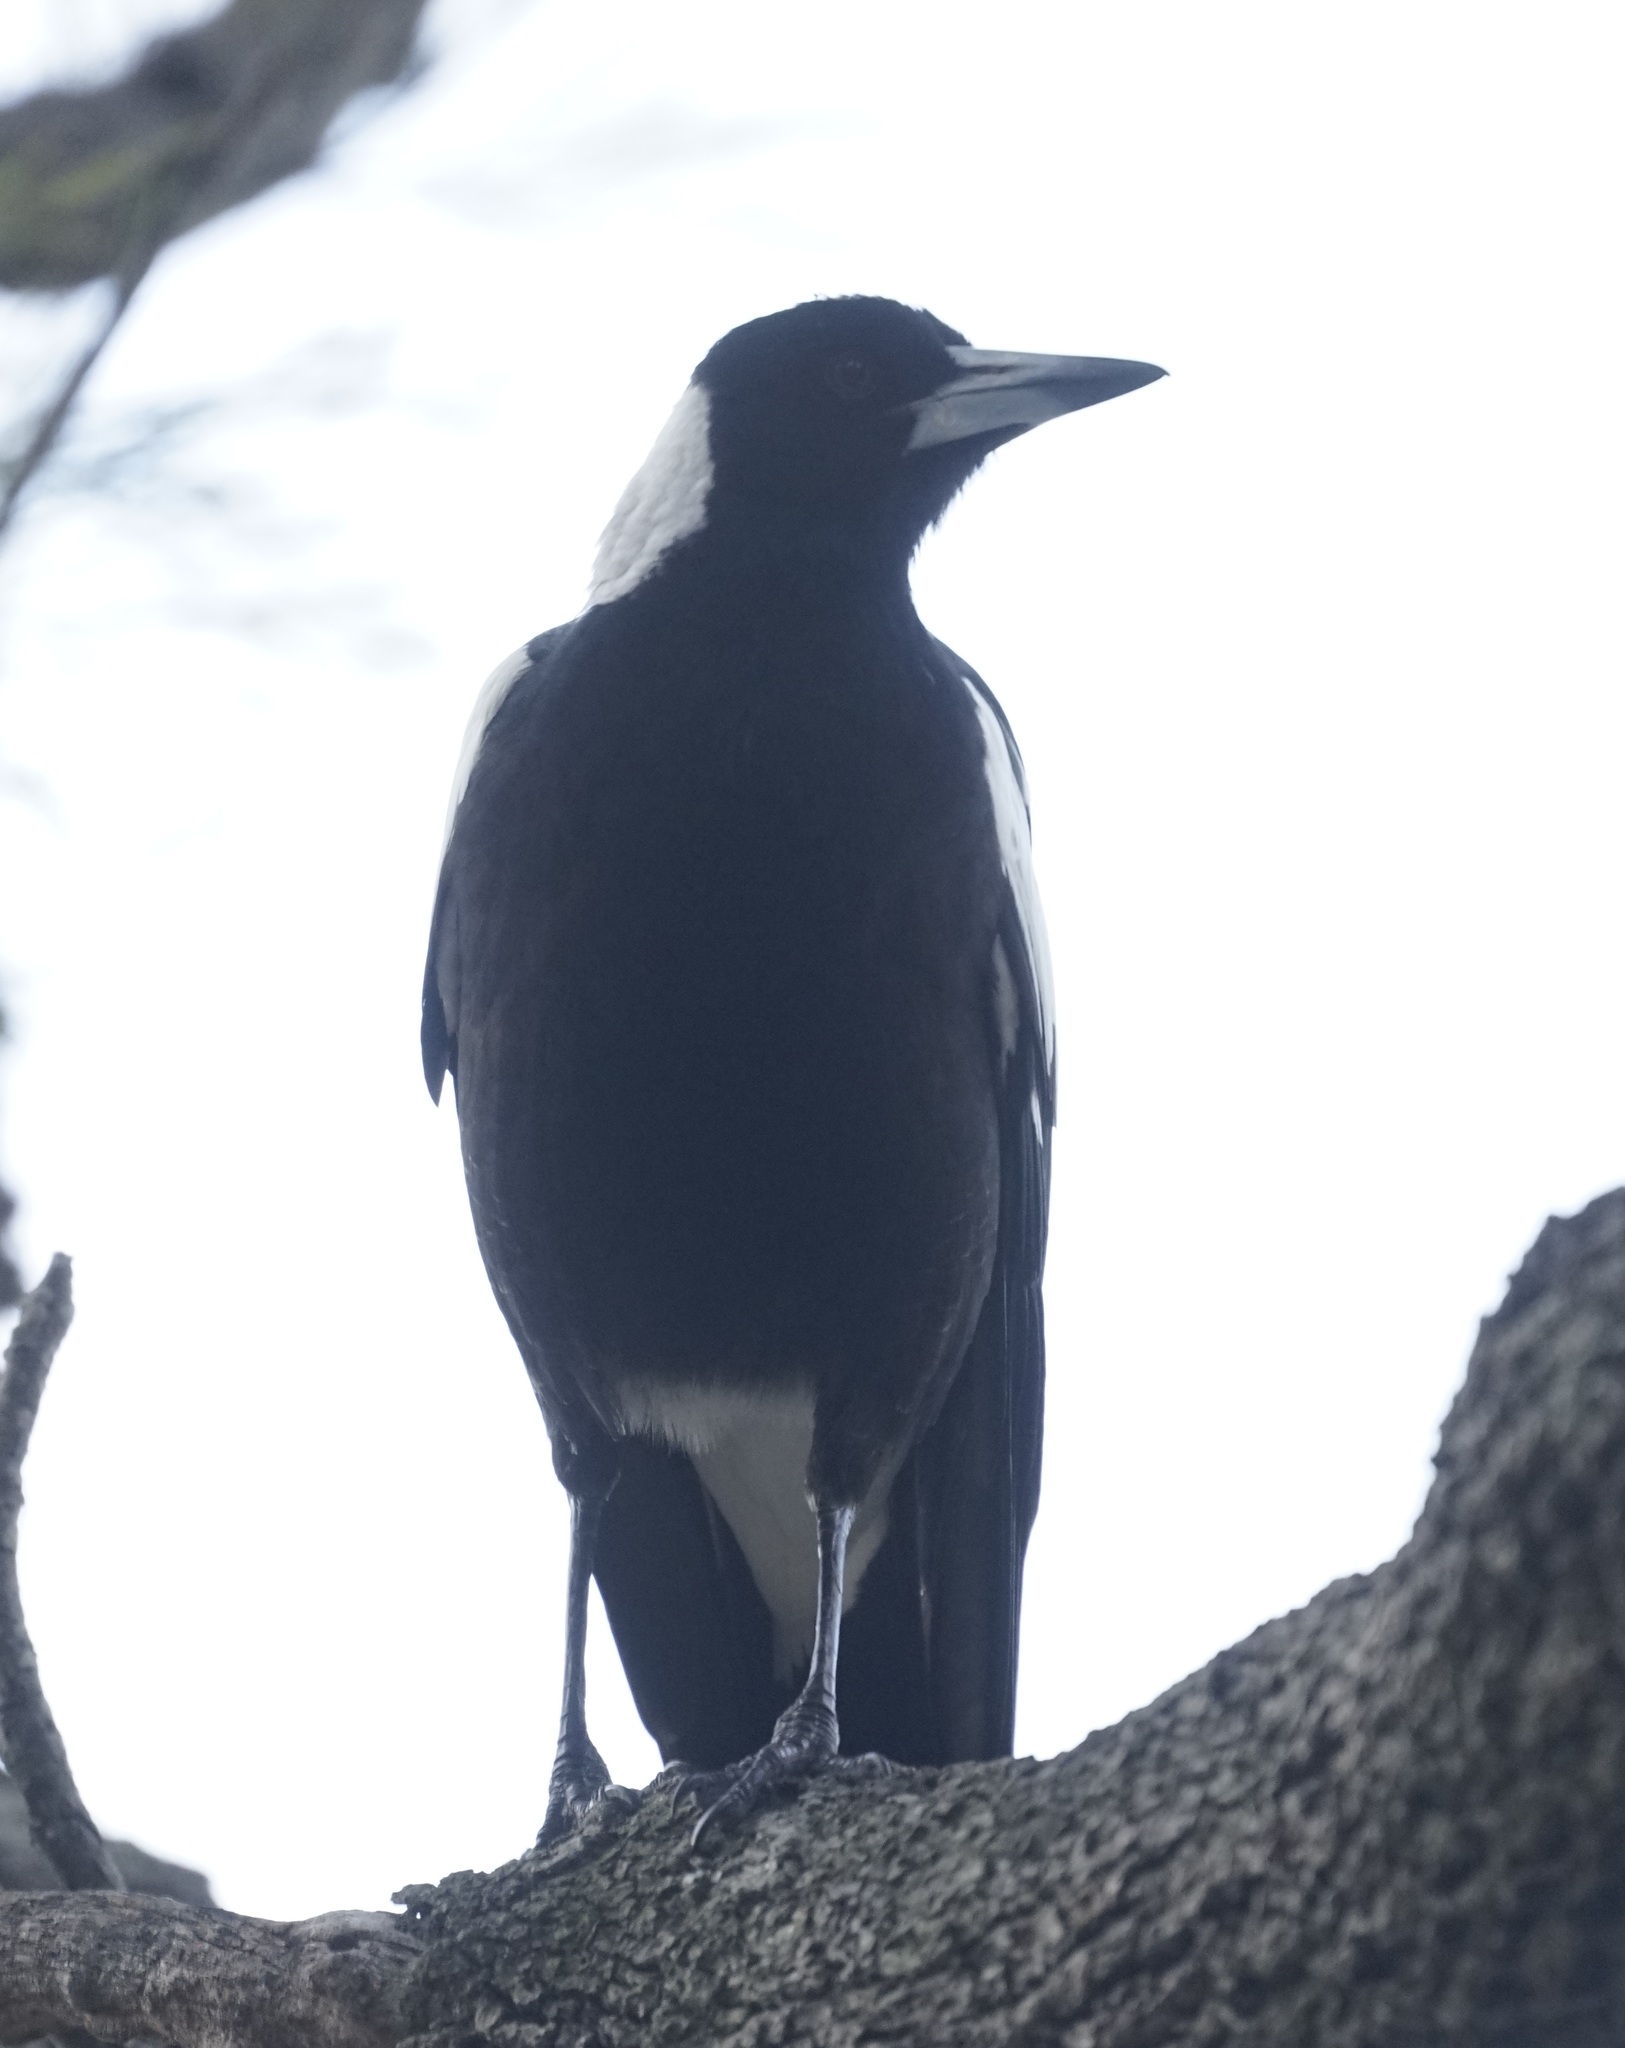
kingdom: Animalia
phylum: Chordata
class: Aves
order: Passeriformes
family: Cracticidae
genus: Gymnorhina
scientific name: Gymnorhina tibicen
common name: Australian magpie
